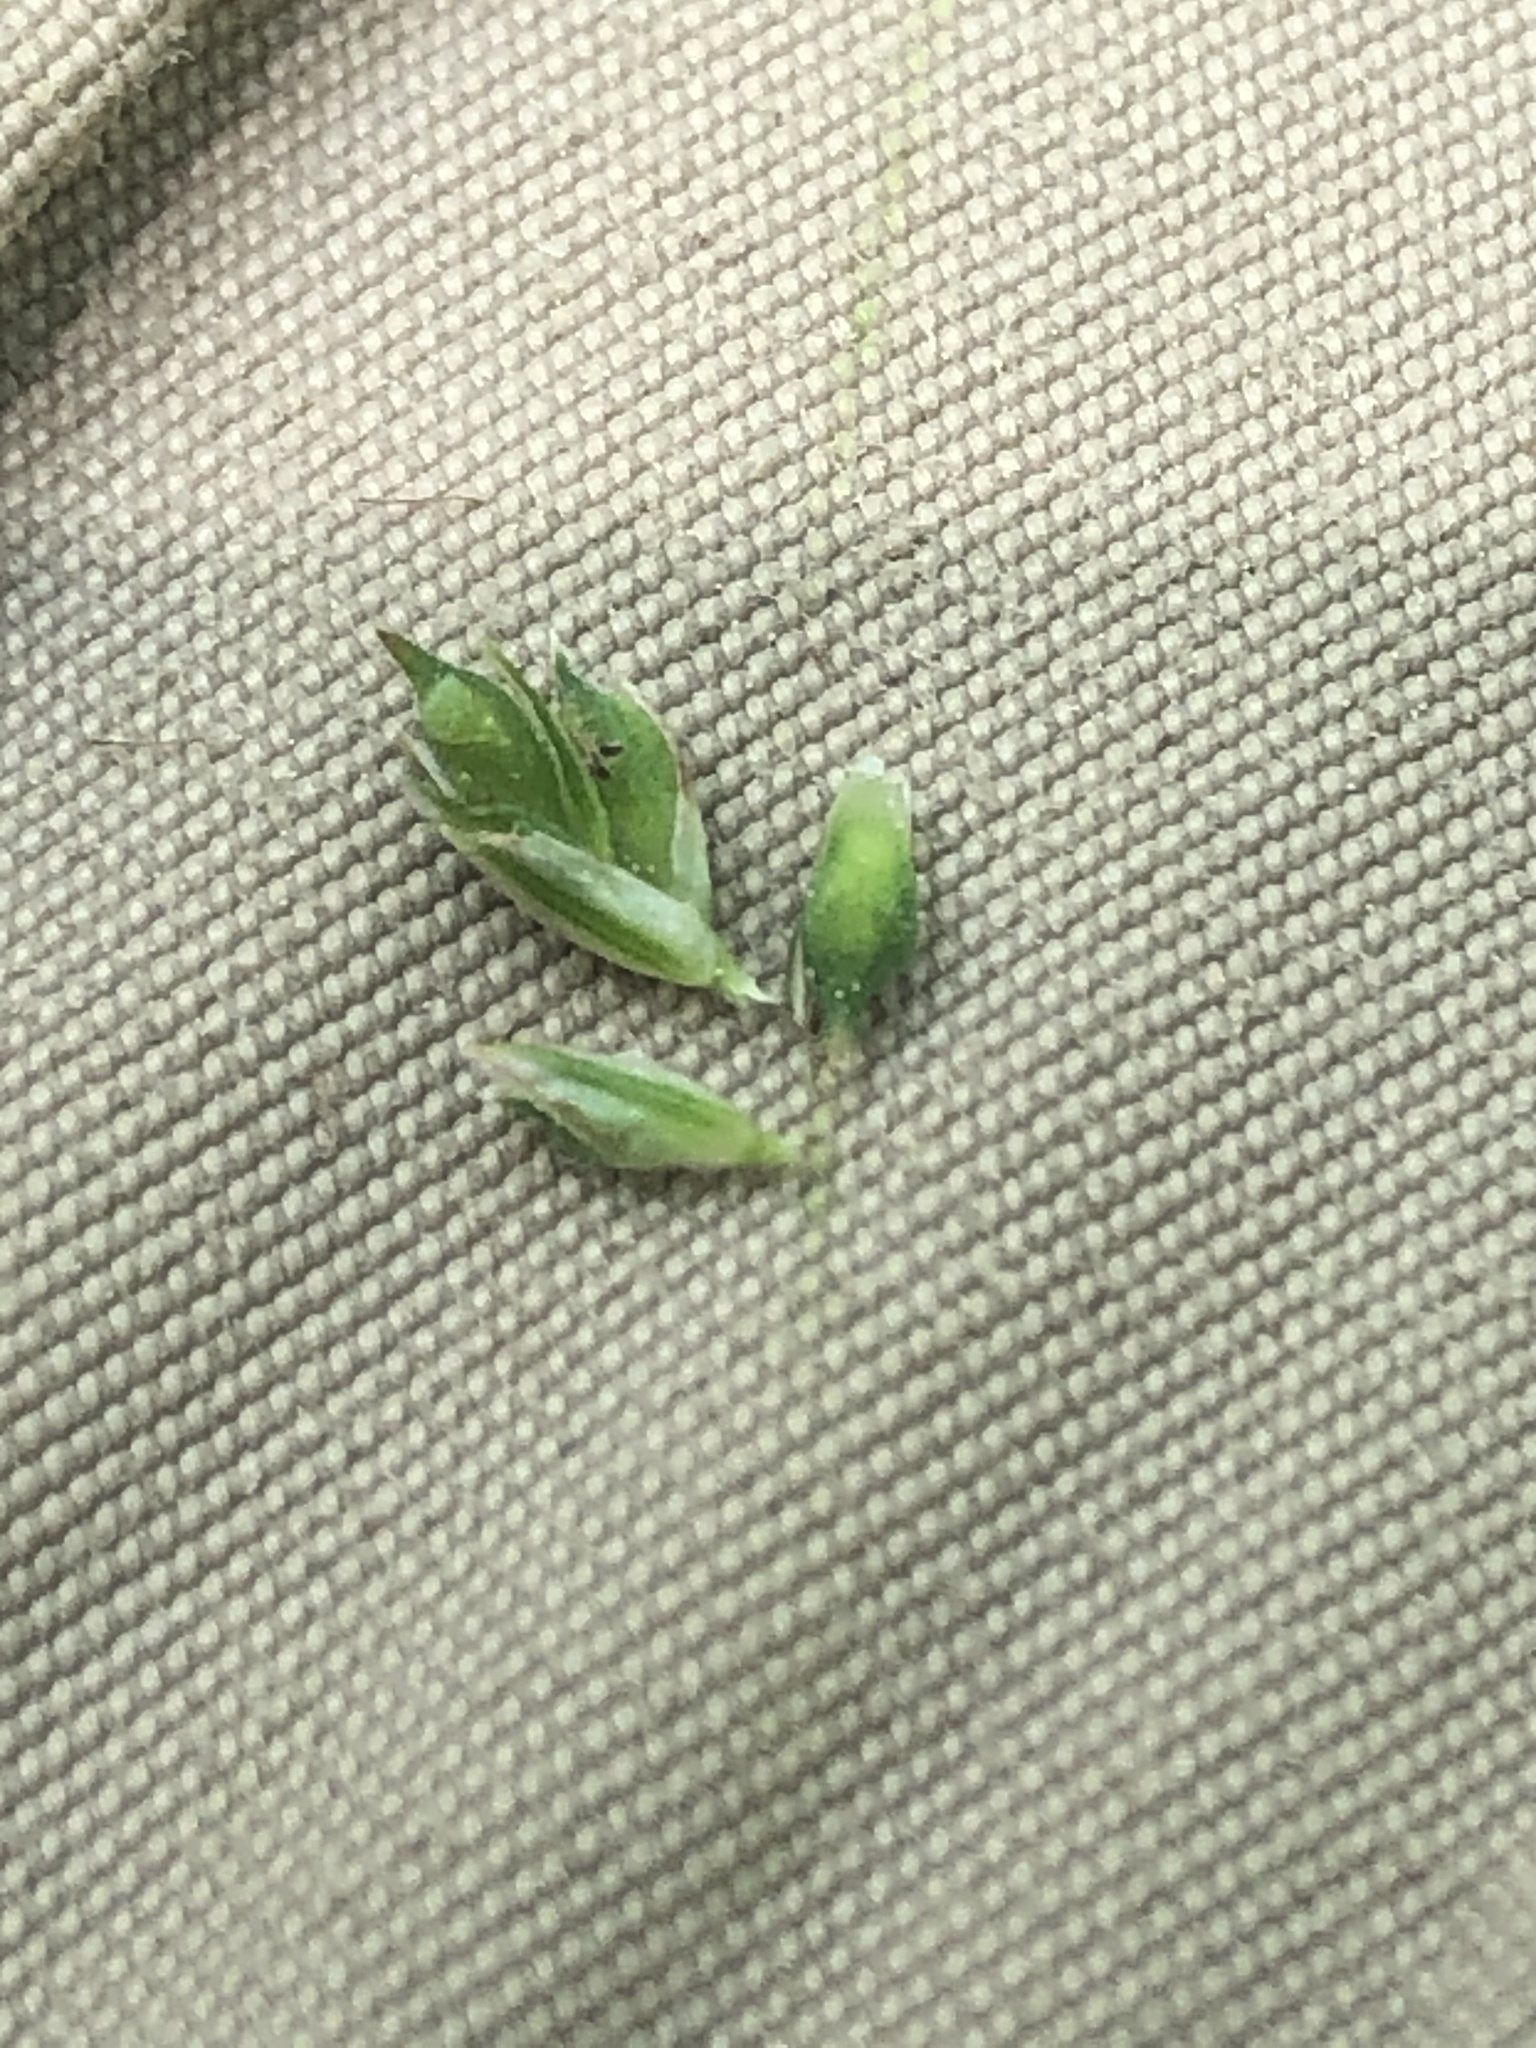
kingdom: Plantae
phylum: Tracheophyta
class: Liliopsida
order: Poales
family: Cyperaceae
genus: Carex
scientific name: Carex albicans
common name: Bellow-beaked sedge
